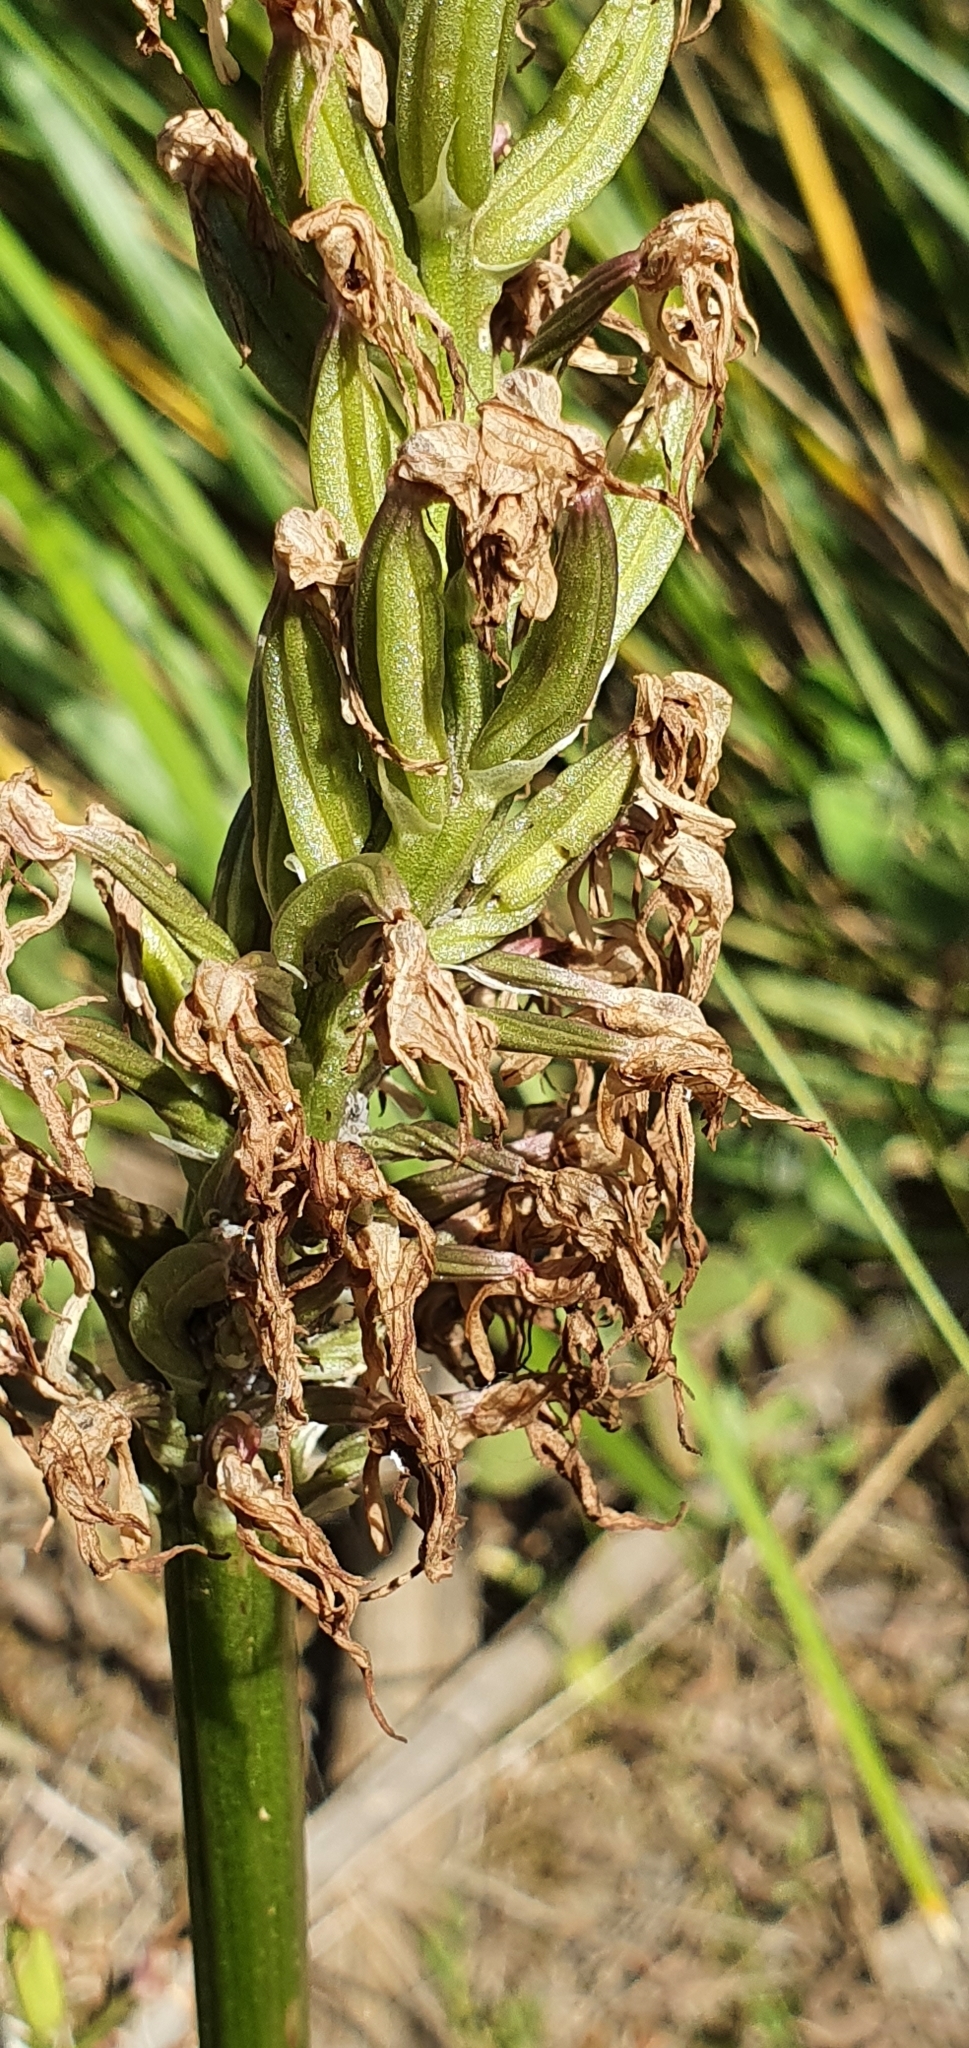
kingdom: Plantae
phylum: Tracheophyta
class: Liliopsida
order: Asparagales
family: Orchidaceae
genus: Orchis
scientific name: Orchis italica
